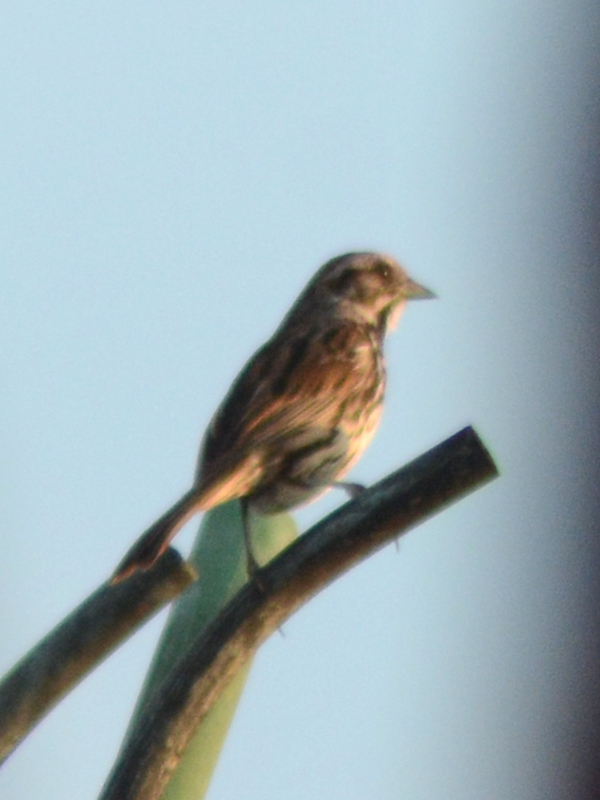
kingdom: Animalia
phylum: Chordata
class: Aves
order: Passeriformes
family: Passerellidae
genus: Melospiza
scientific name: Melospiza melodia
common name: Song sparrow
